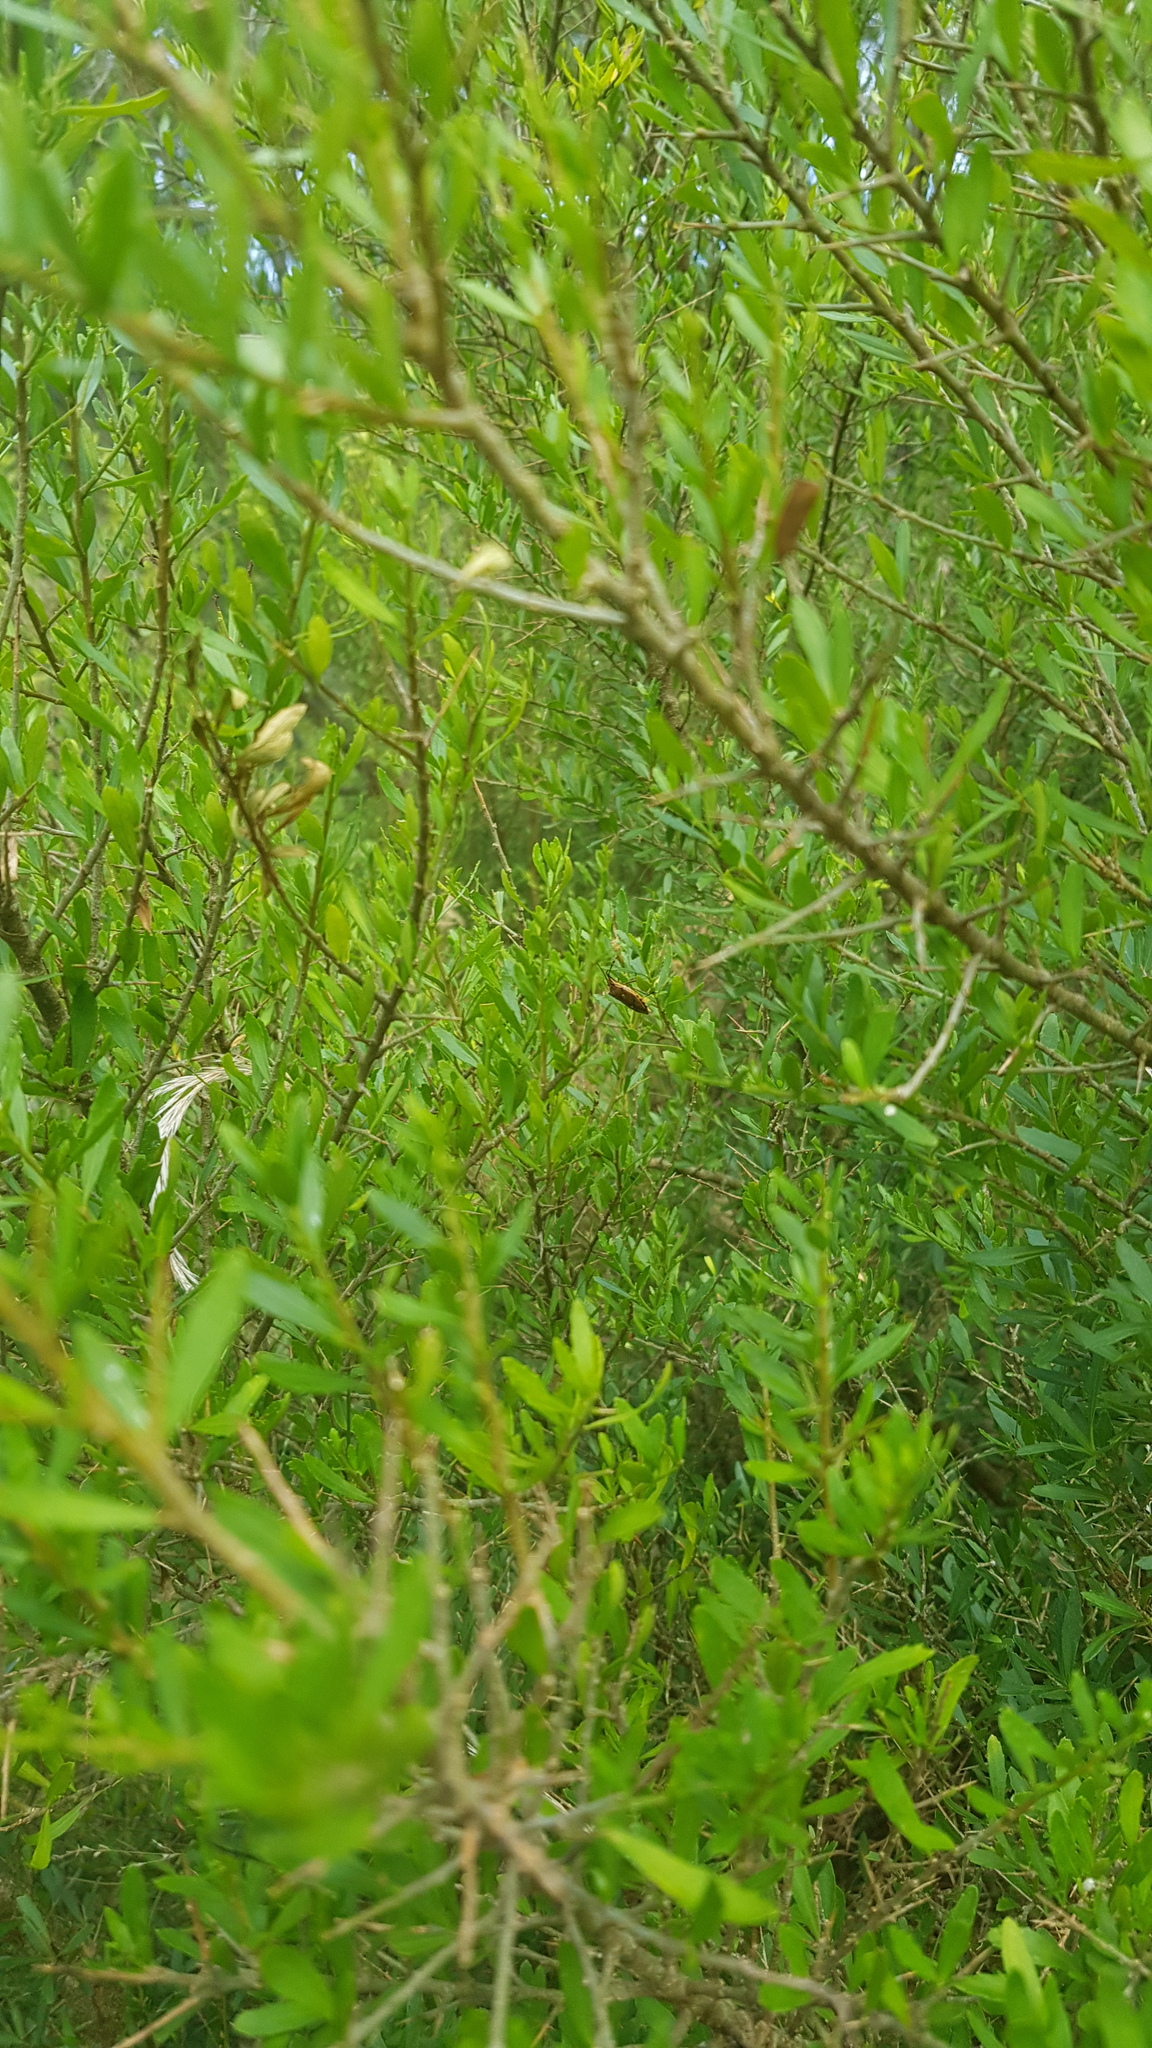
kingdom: Animalia
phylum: Arthropoda
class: Insecta
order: Hemiptera
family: Pentatomidae
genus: Omyta
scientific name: Omyta centrolineata
